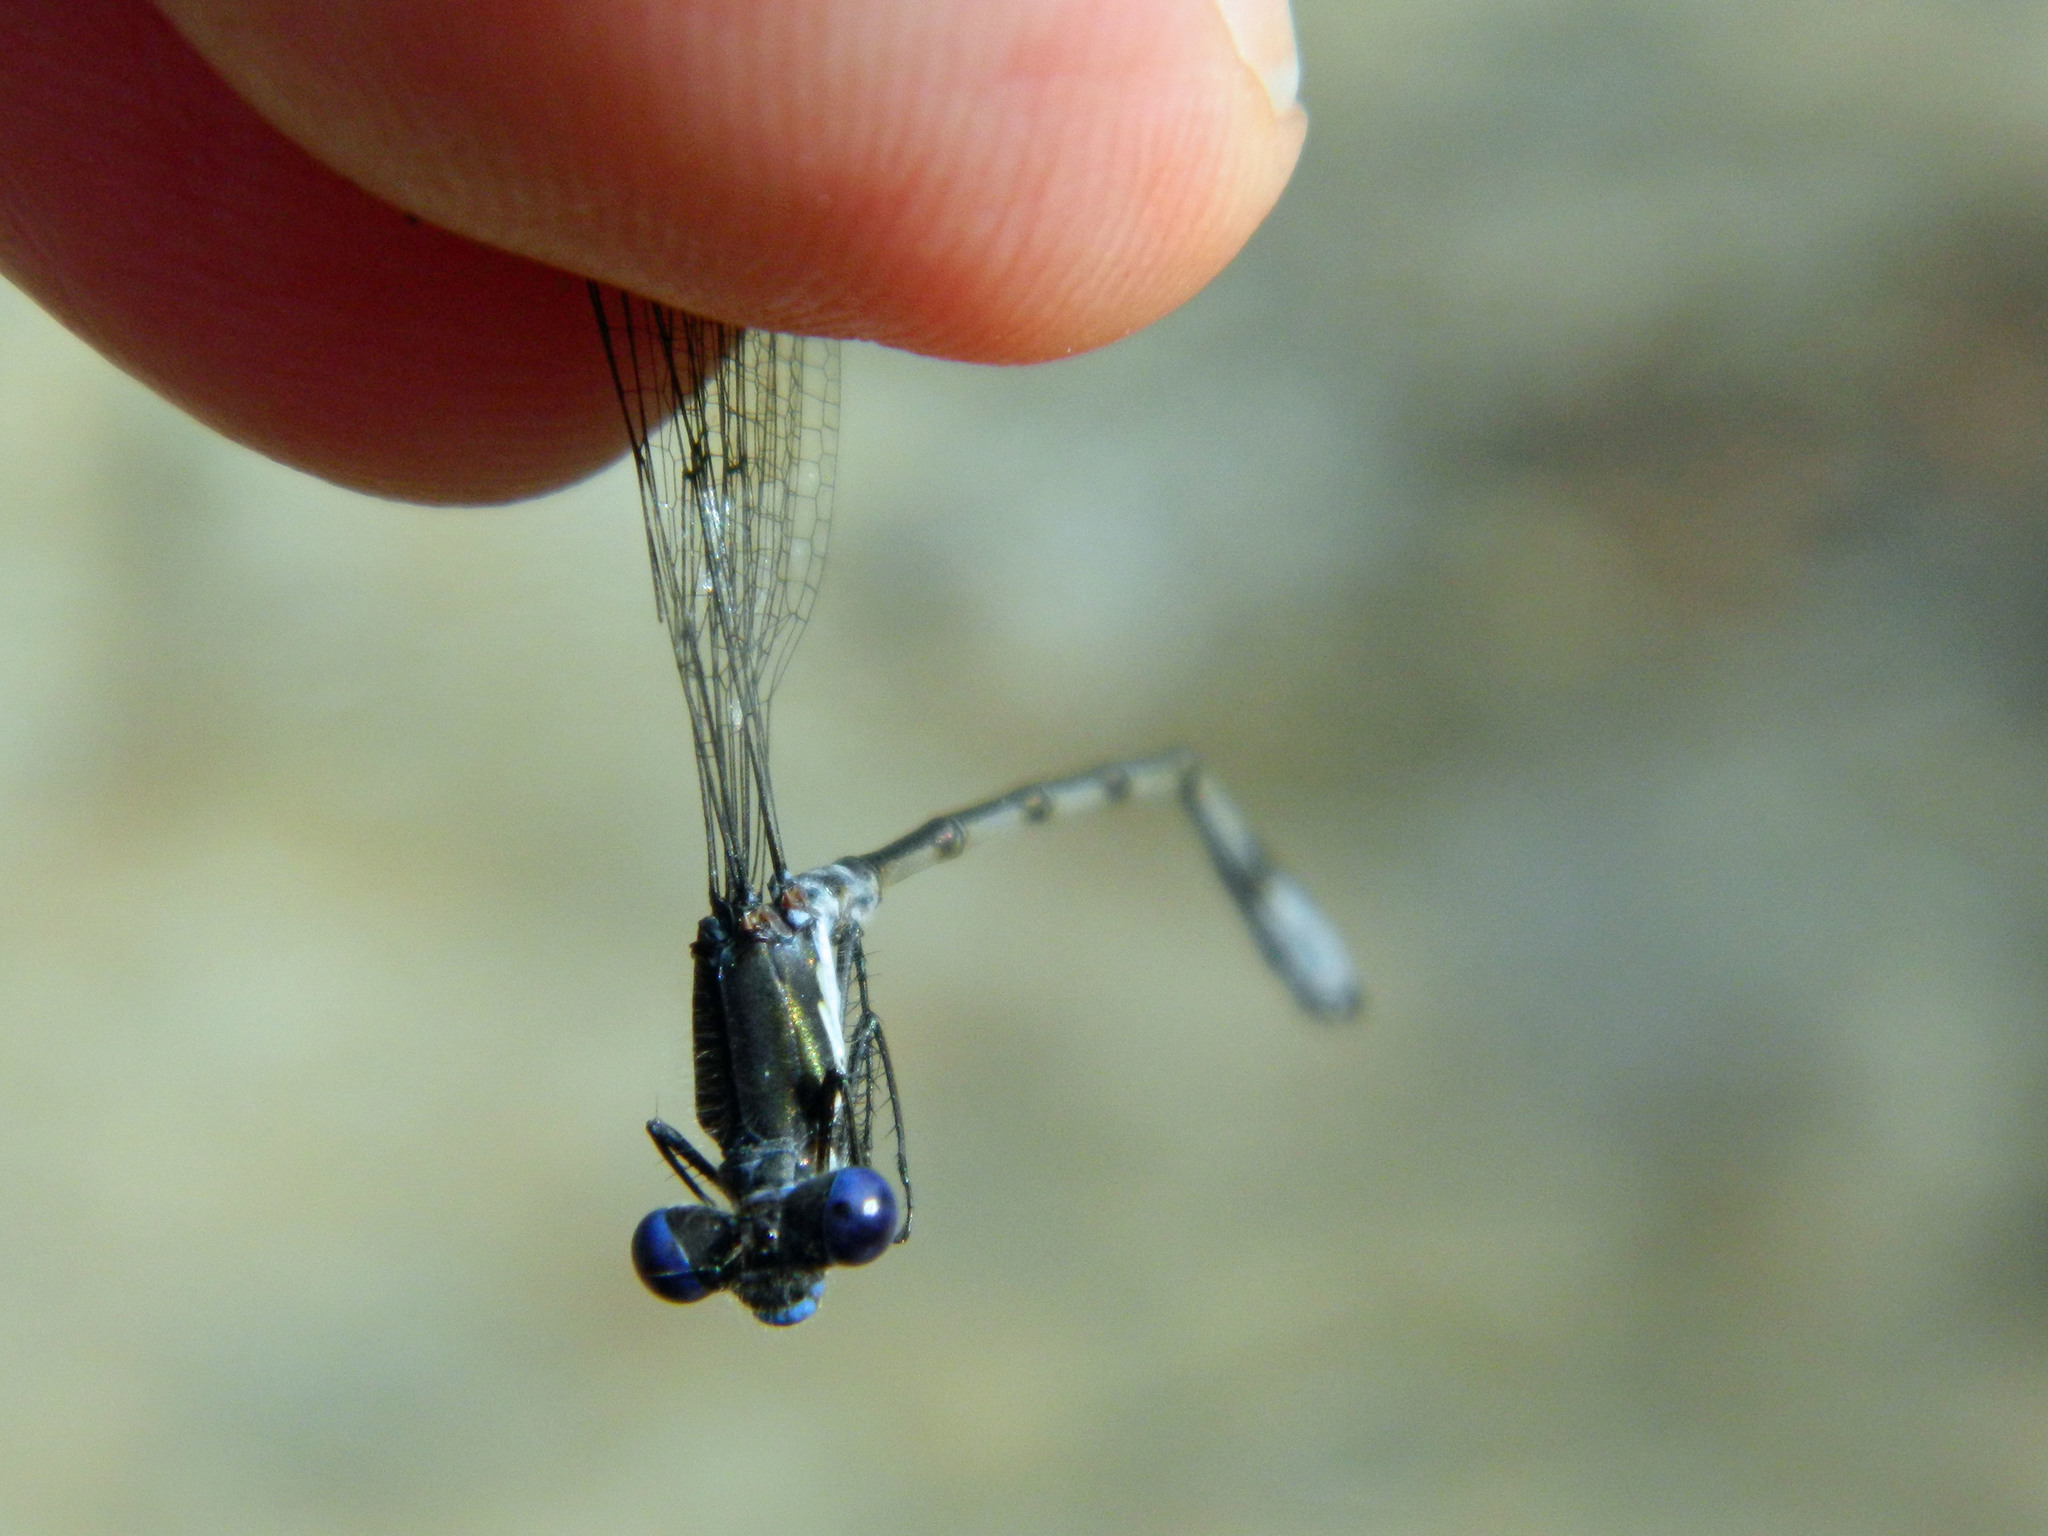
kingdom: Animalia
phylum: Arthropoda
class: Insecta
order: Odonata
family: Lestidae
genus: Lestes
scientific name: Lestes congener
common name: Spotted spreadwing
